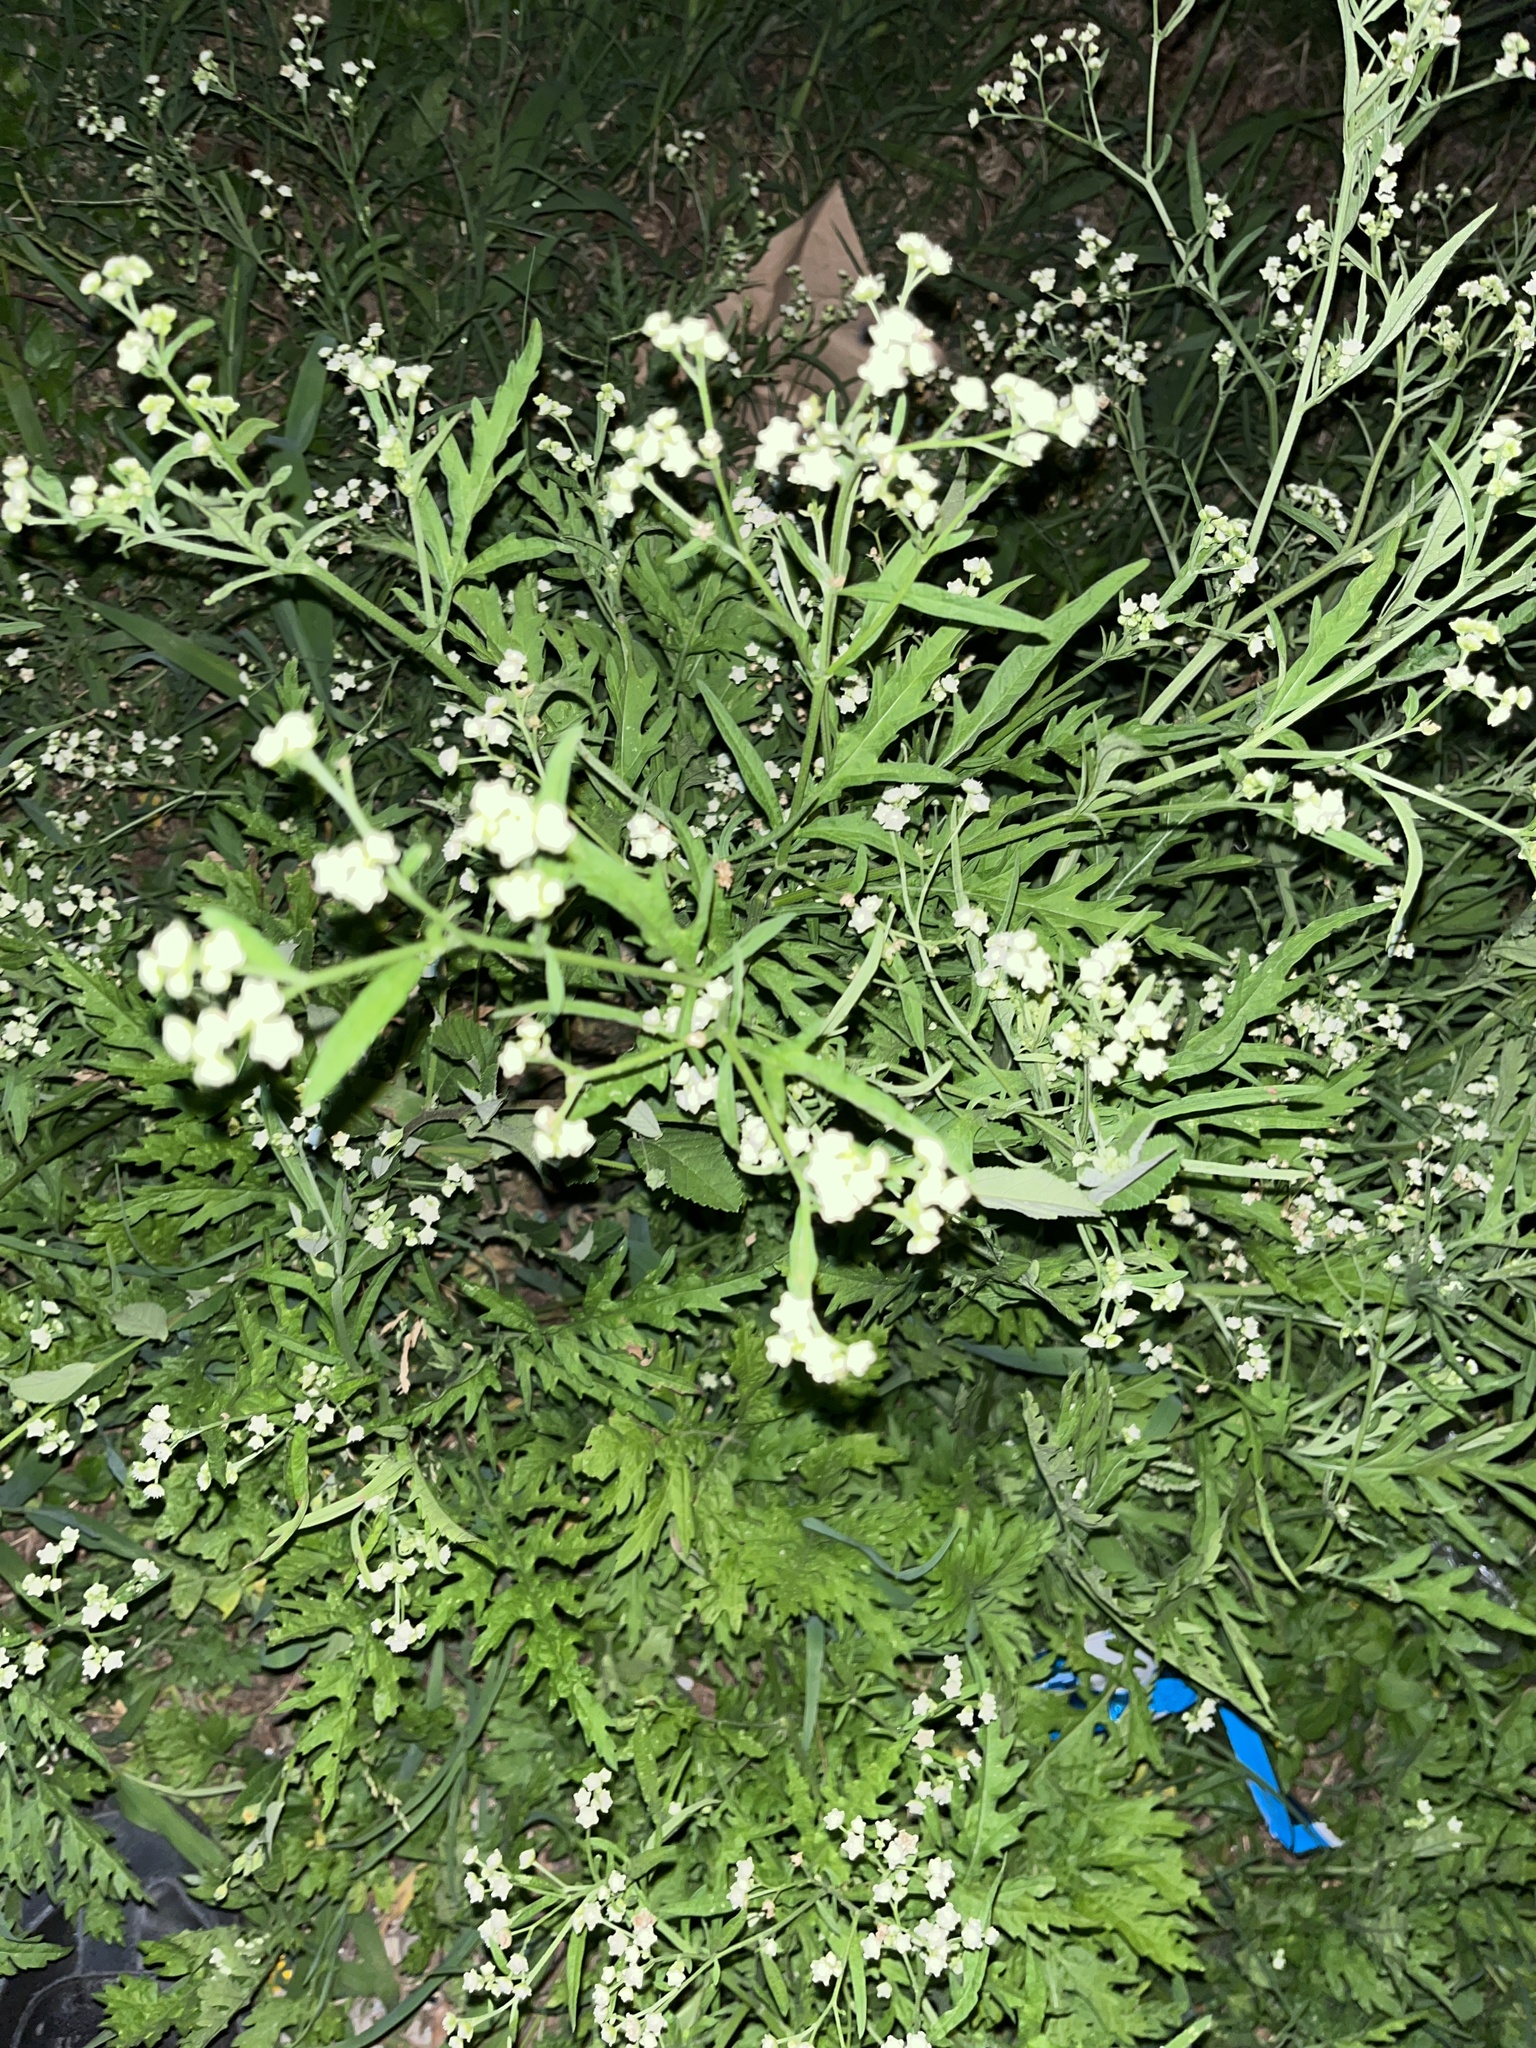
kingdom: Plantae
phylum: Tracheophyta
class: Magnoliopsida
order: Asterales
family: Asteraceae
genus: Parthenium
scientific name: Parthenium hysterophorus
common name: Santa maria feverfew
